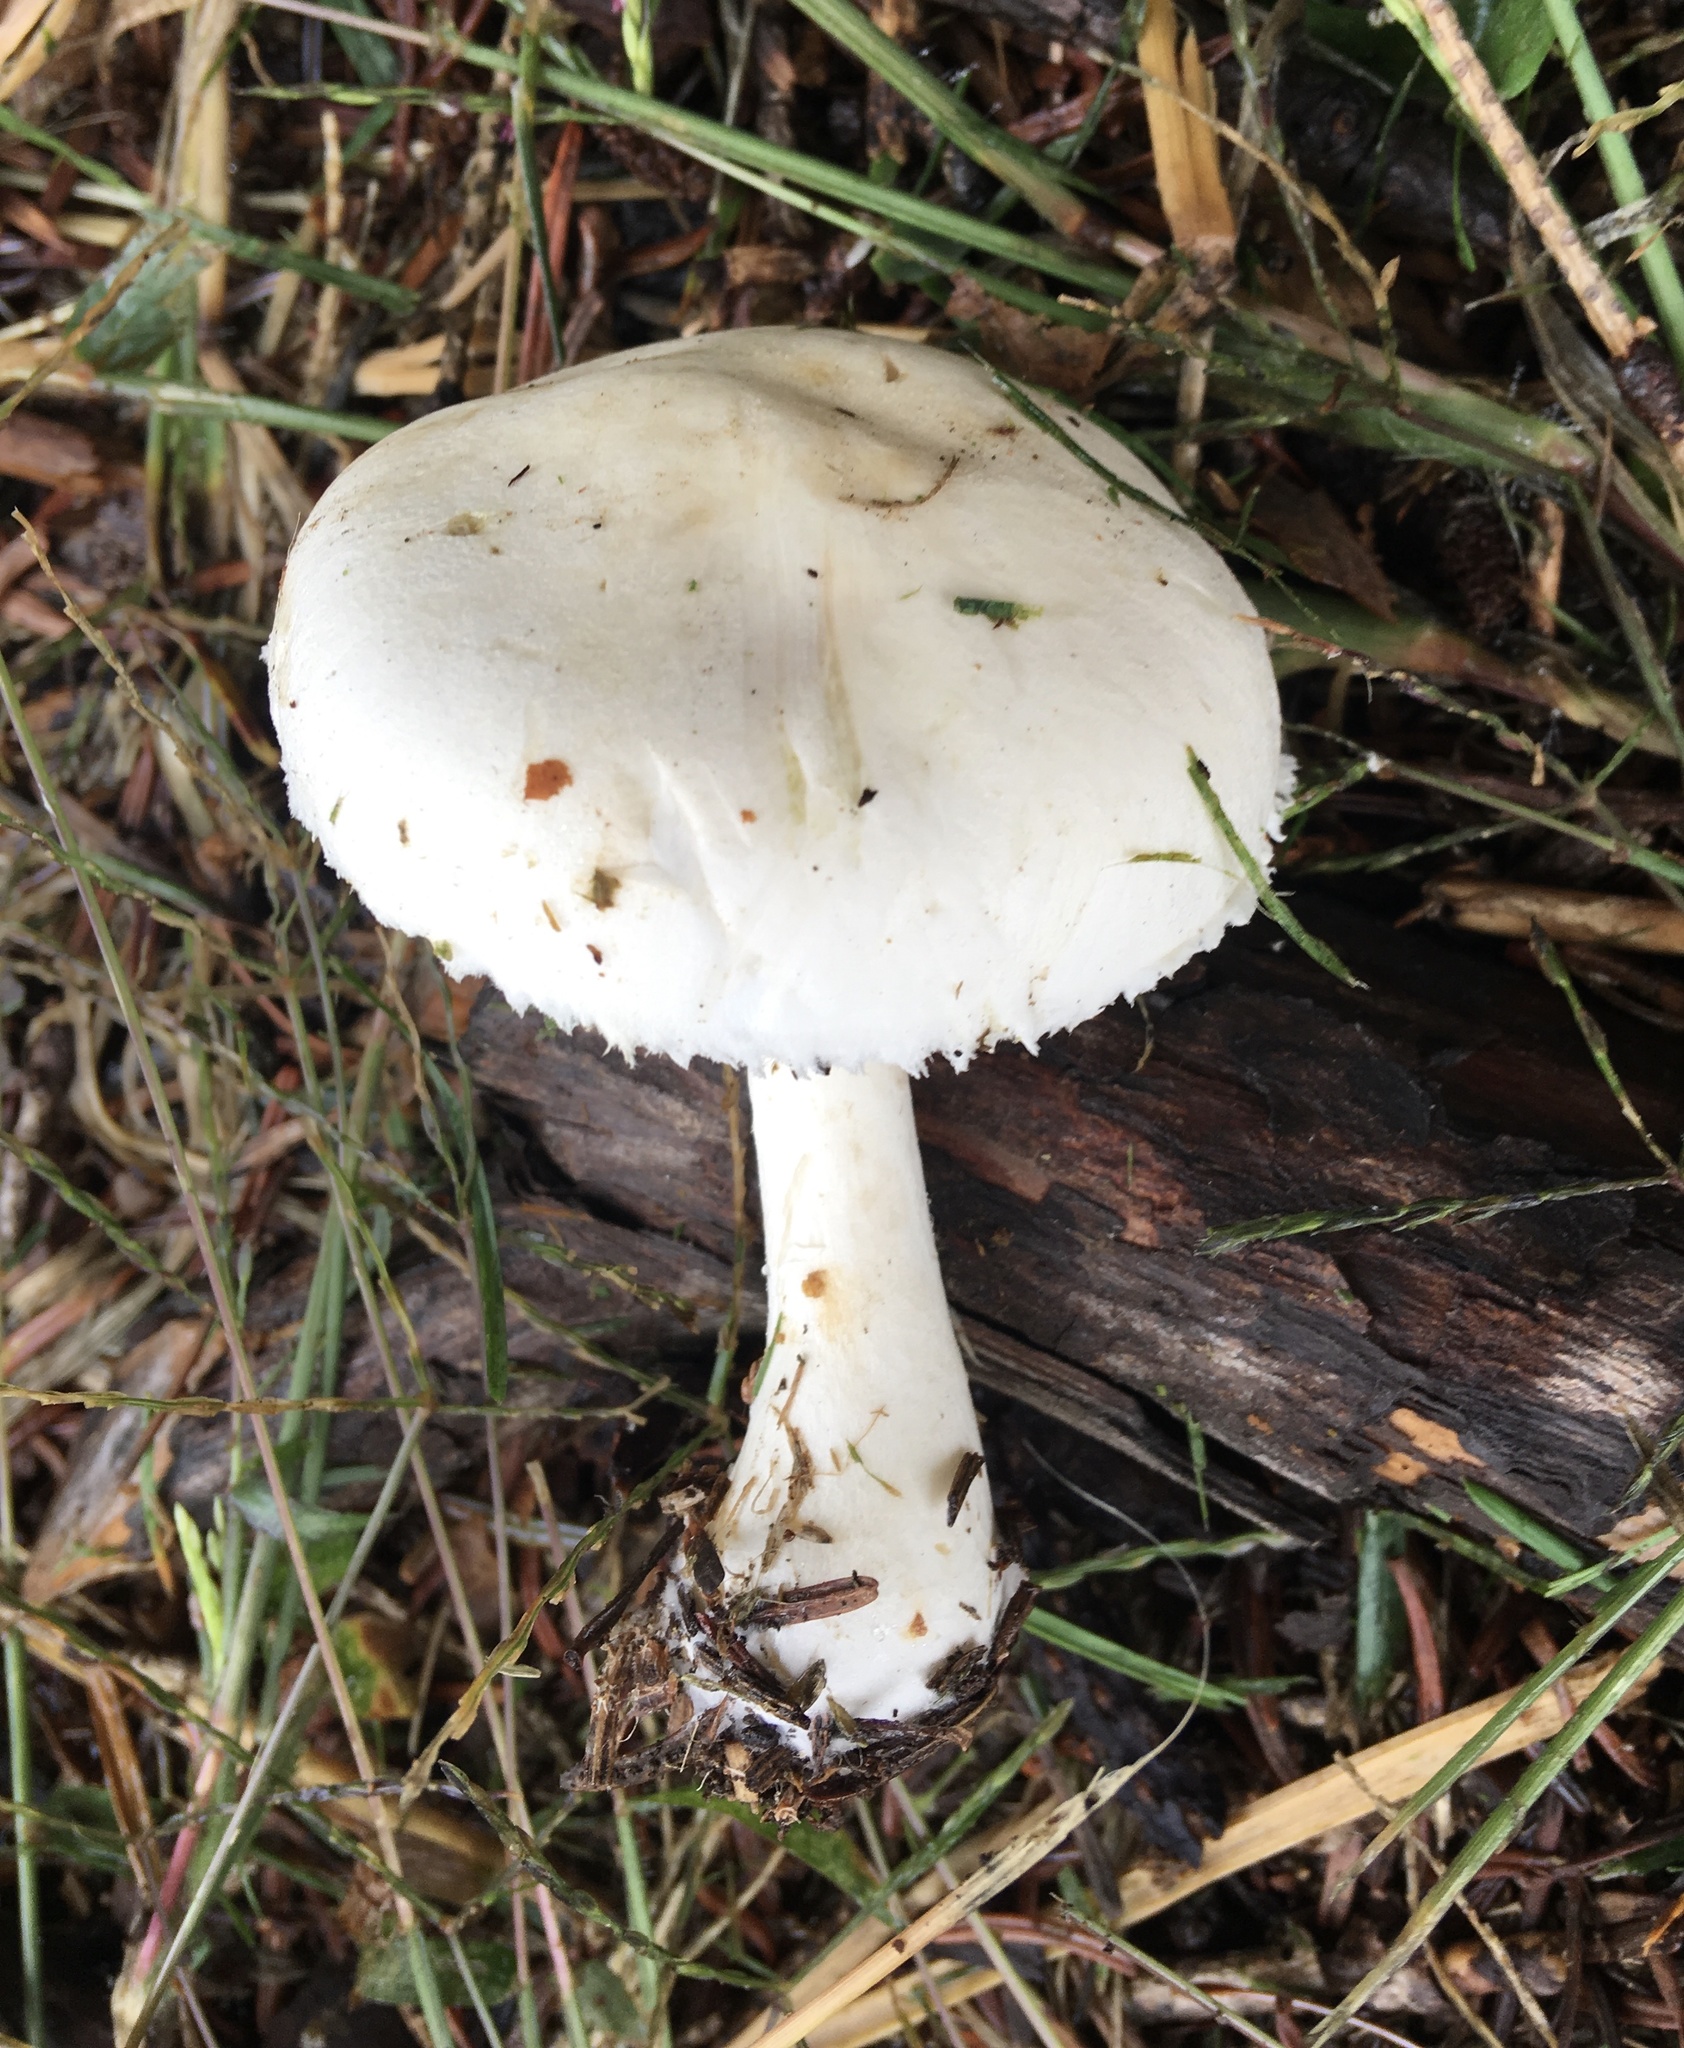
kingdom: Fungi
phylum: Basidiomycota
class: Agaricomycetes
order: Agaricales
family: Amanitaceae
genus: Amanita
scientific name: Amanita bisporigera
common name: Eastern north american destroying angel
